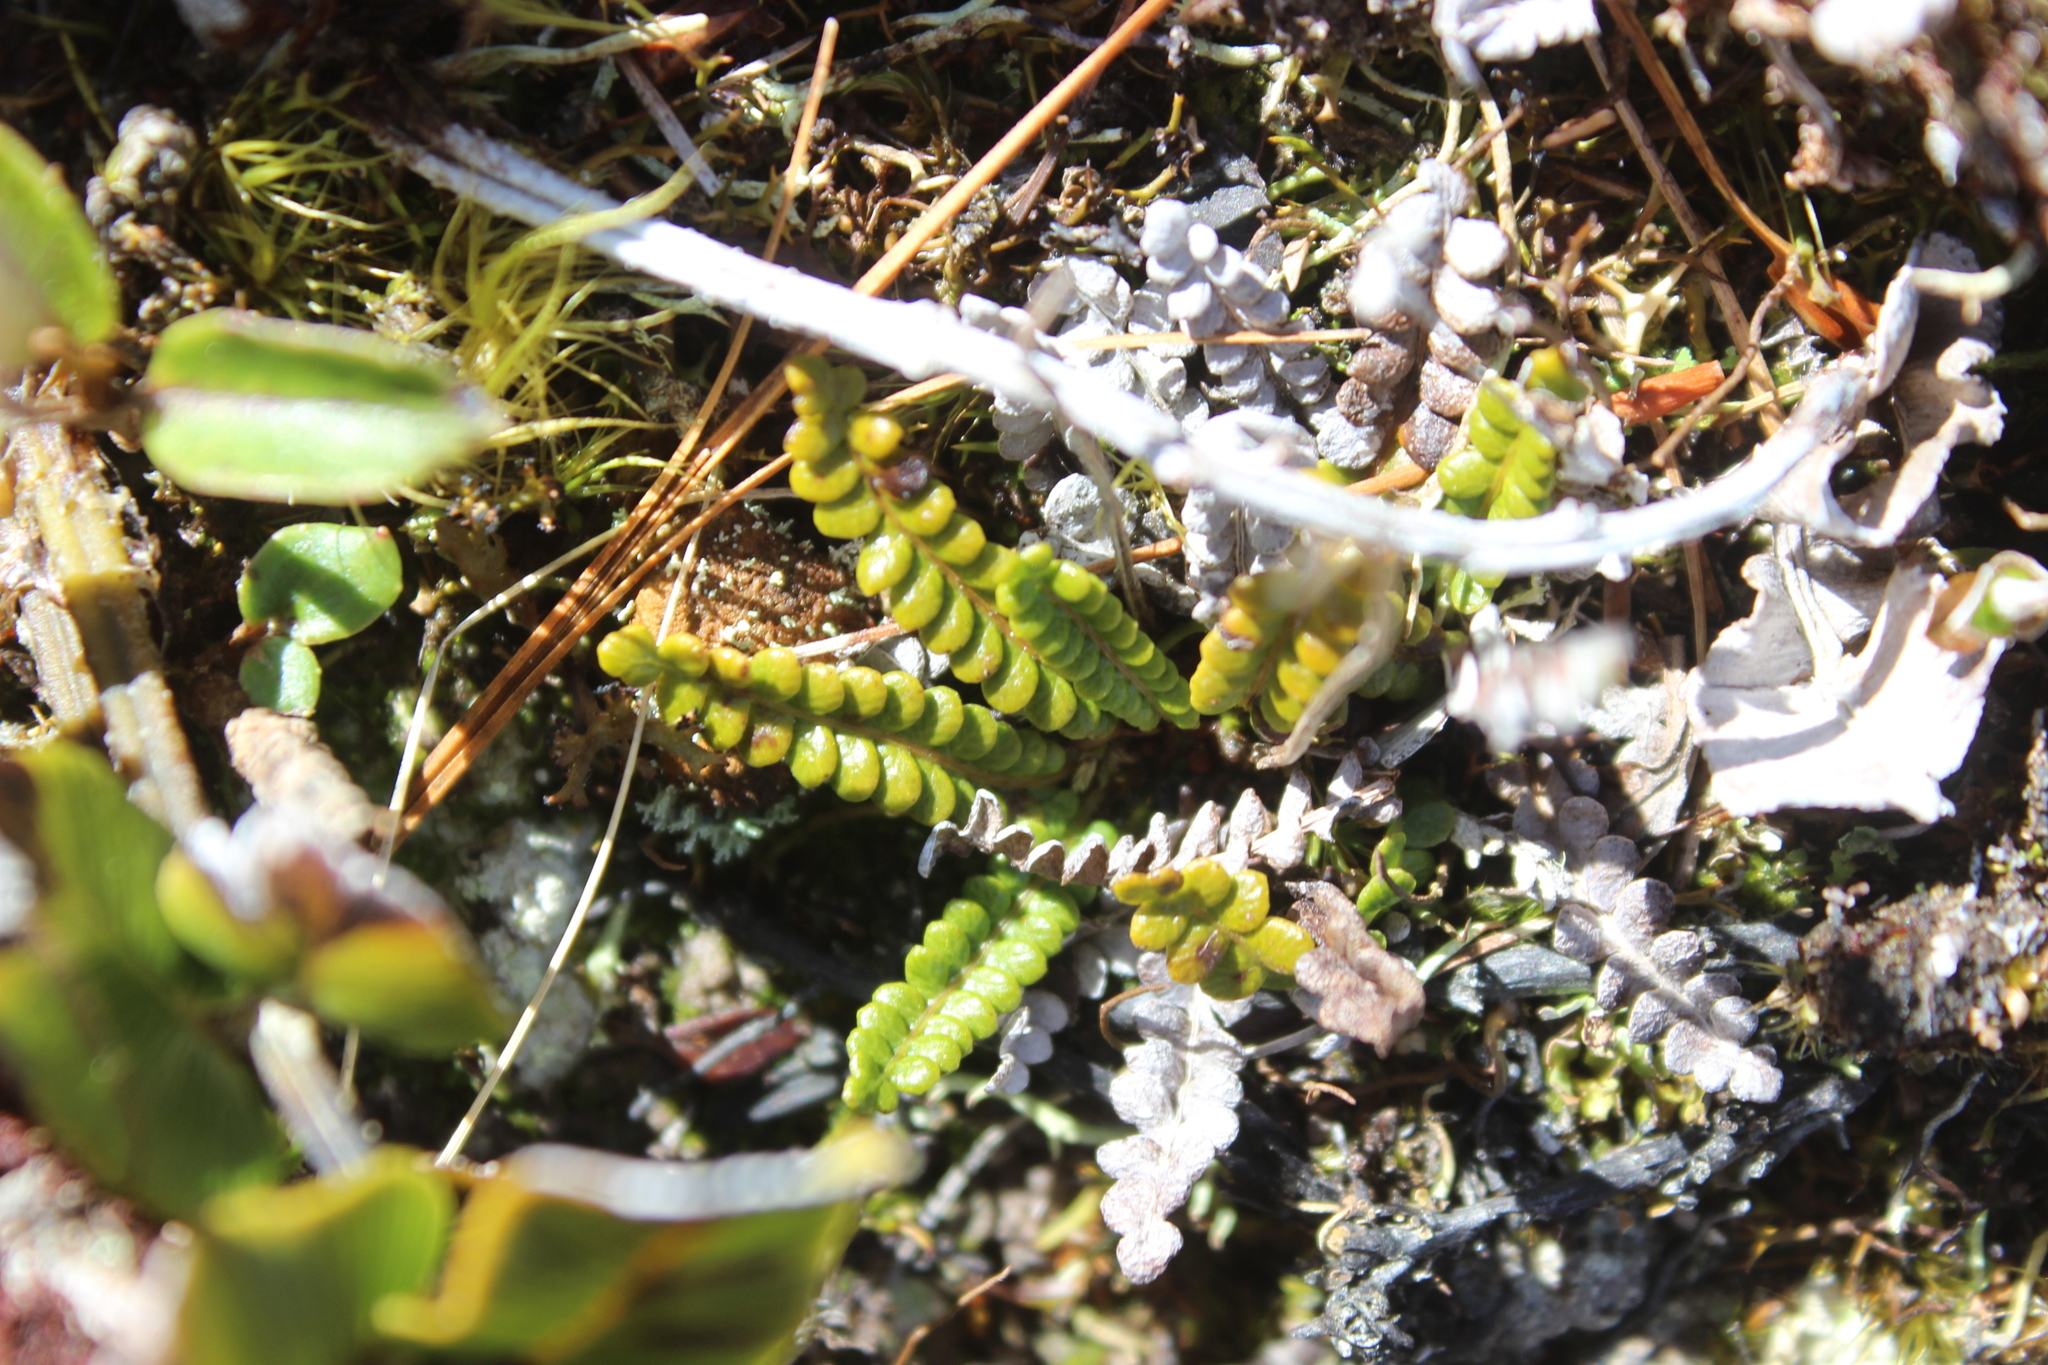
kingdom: Plantae
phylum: Tracheophyta
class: Polypodiopsida
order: Polypodiales
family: Blechnaceae
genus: Austroblechnum
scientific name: Austroblechnum penna-marina
